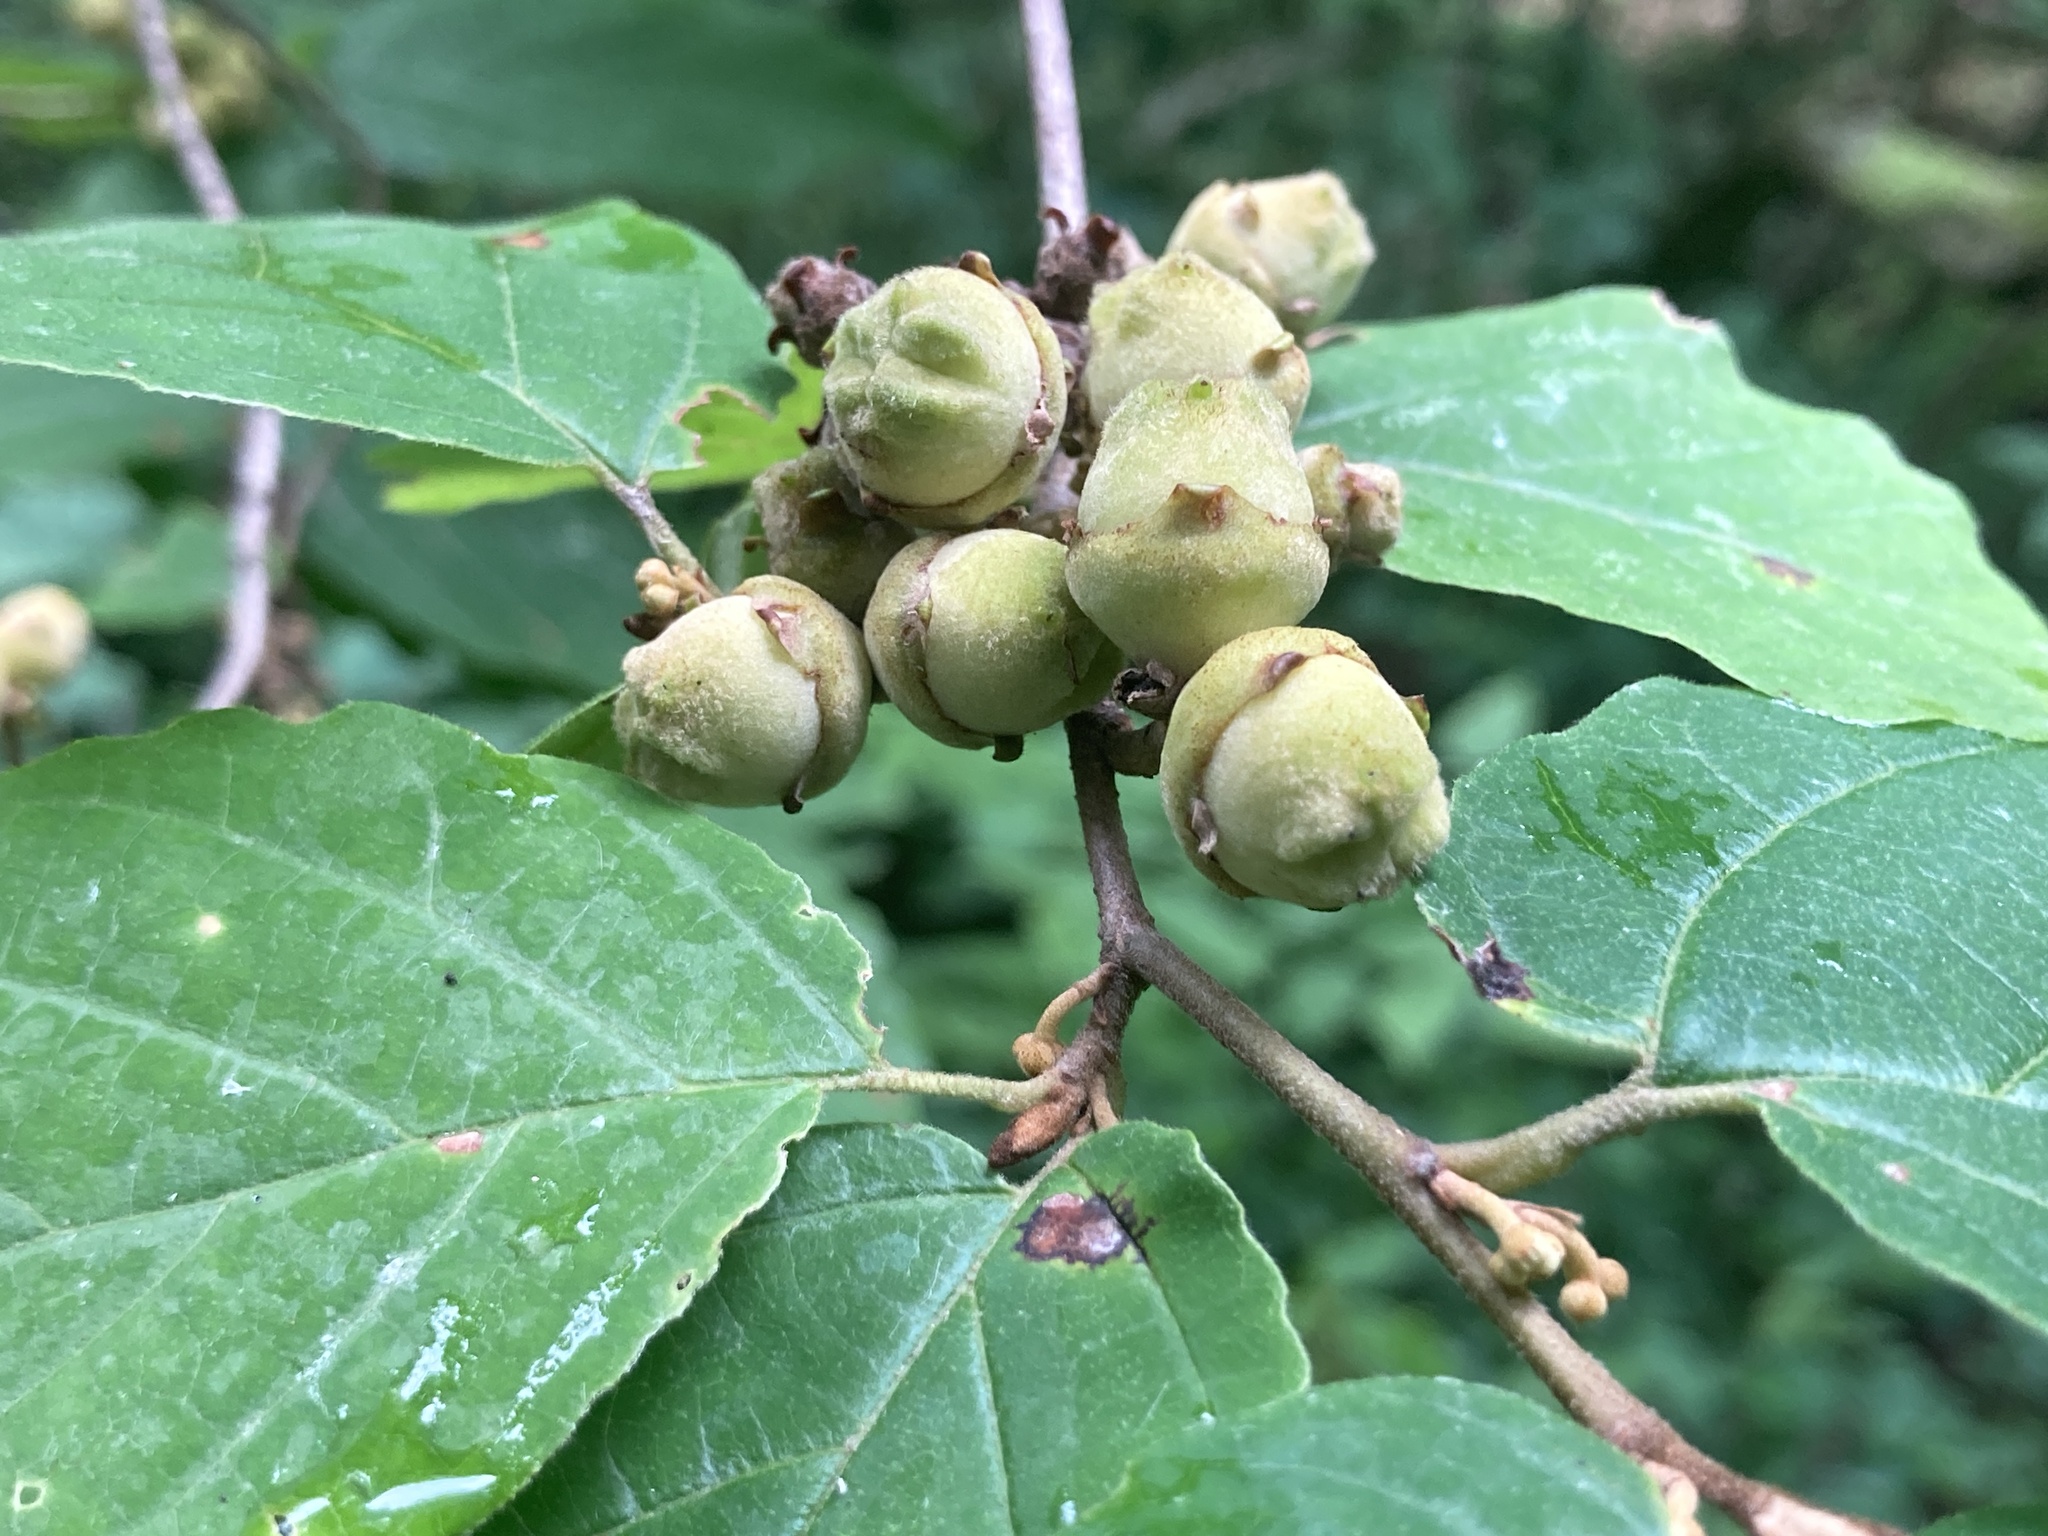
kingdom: Plantae
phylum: Tracheophyta
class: Magnoliopsida
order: Saxifragales
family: Hamamelidaceae
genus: Hamamelis
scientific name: Hamamelis virginiana
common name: Witch-hazel
